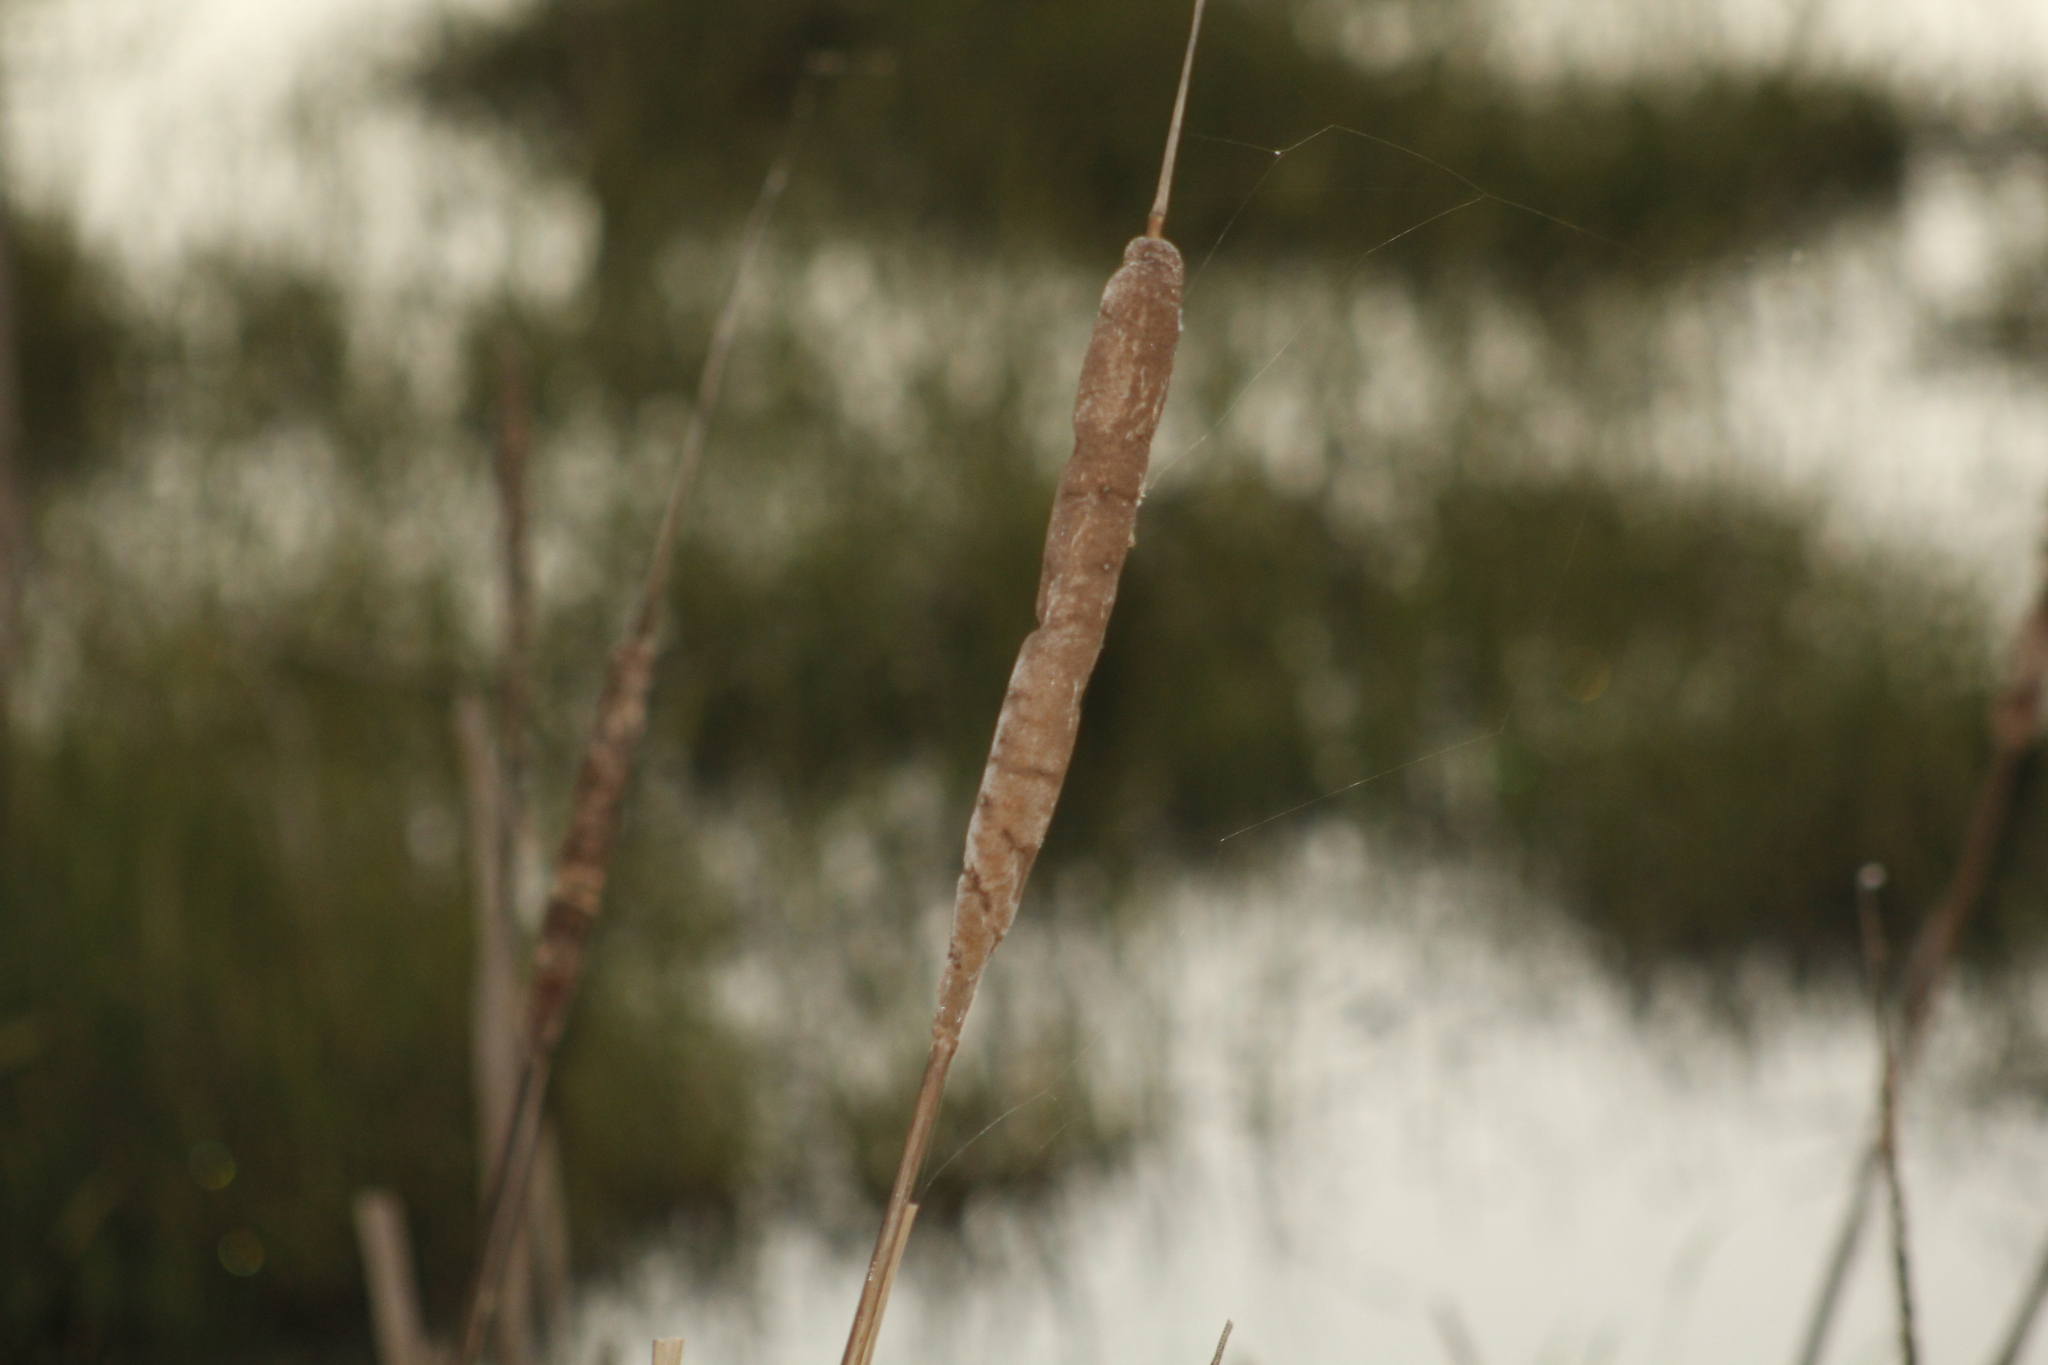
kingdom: Plantae
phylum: Tracheophyta
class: Liliopsida
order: Poales
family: Typhaceae
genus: Typha
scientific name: Typha domingensis
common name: Southern cattail
